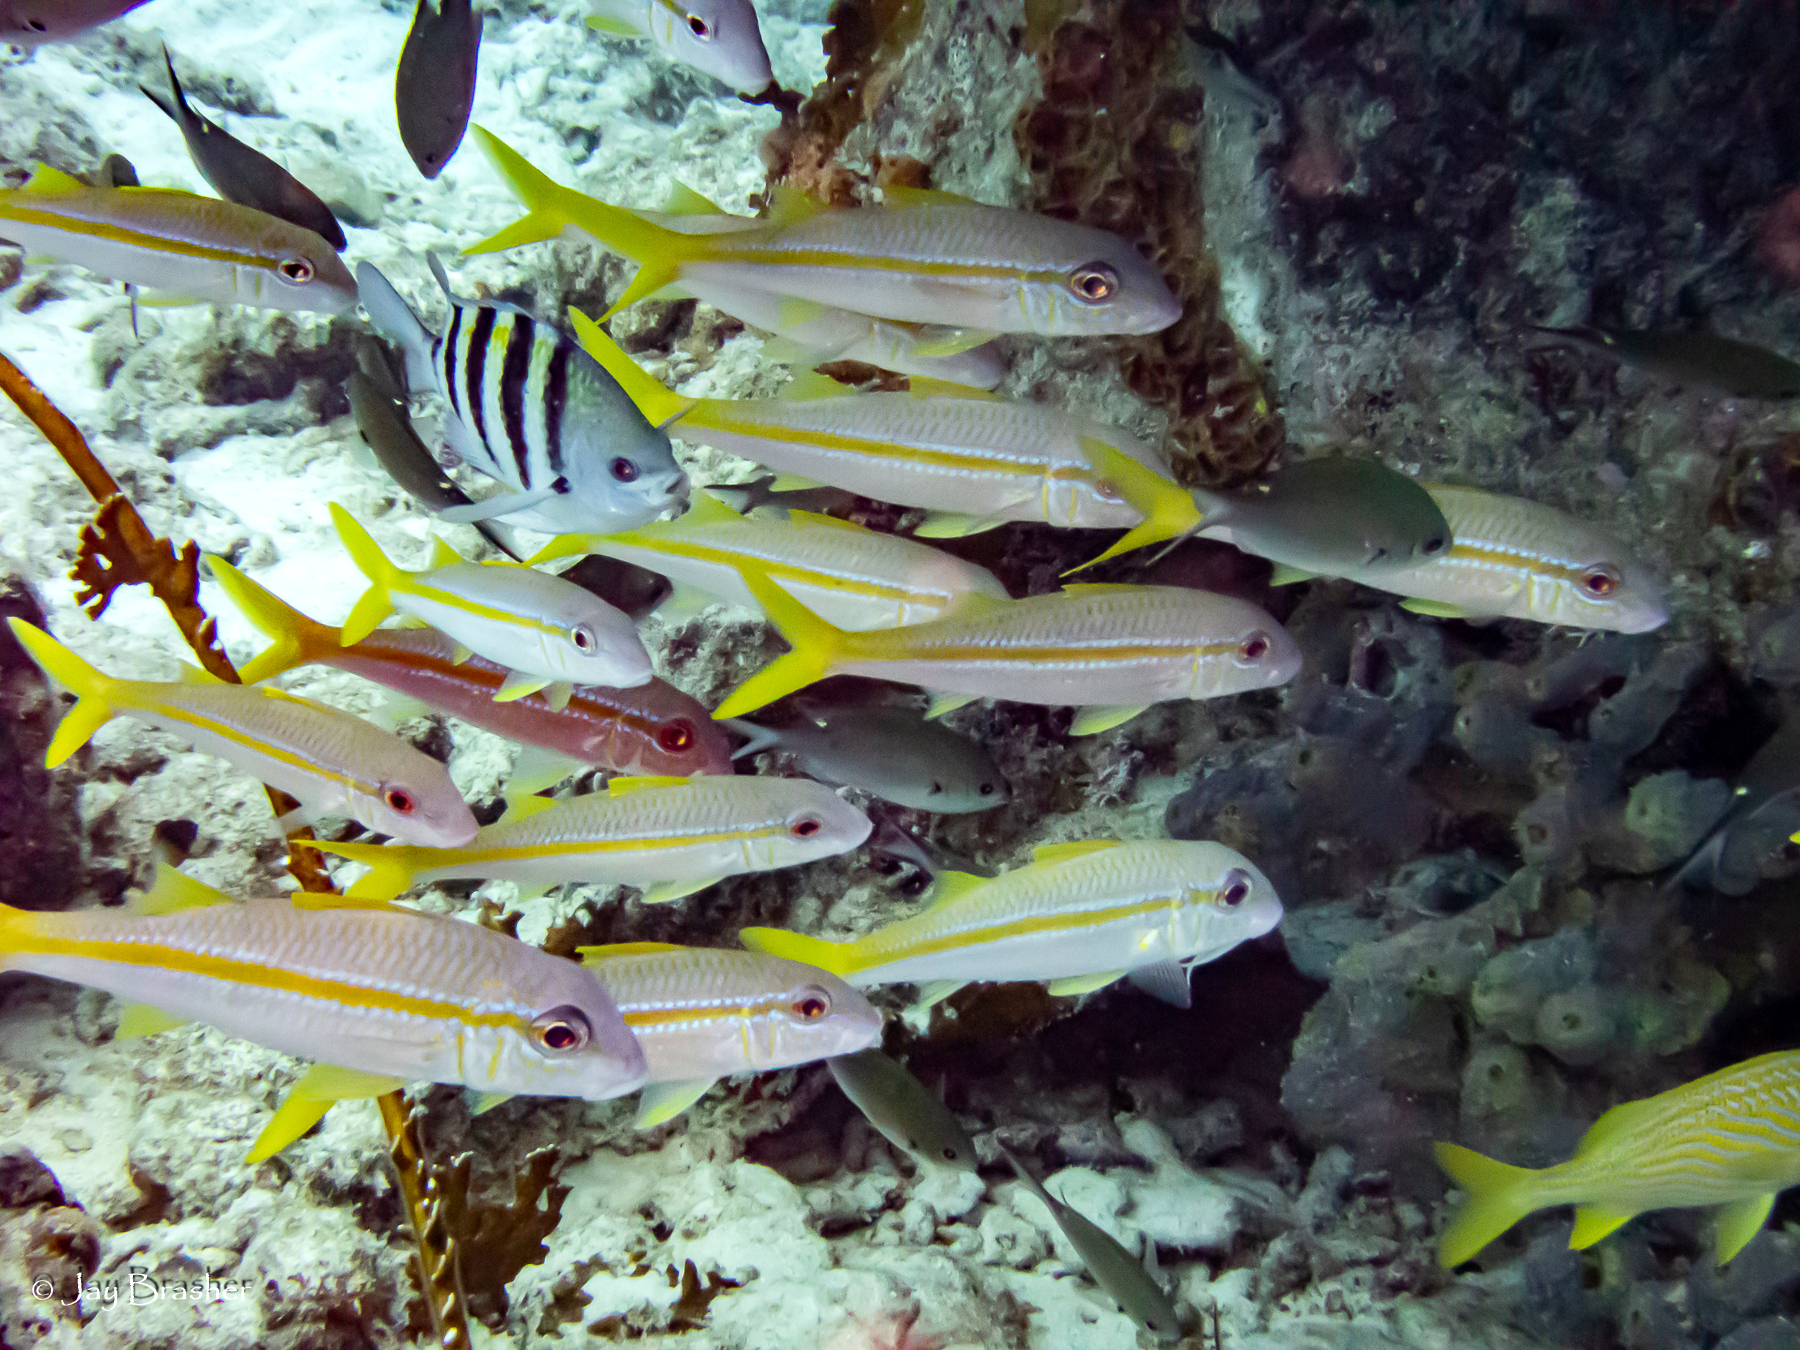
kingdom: Animalia
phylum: Chordata
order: Perciformes
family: Haemulidae
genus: Haemulon
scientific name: Haemulon flavolineatum
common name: French grunt
